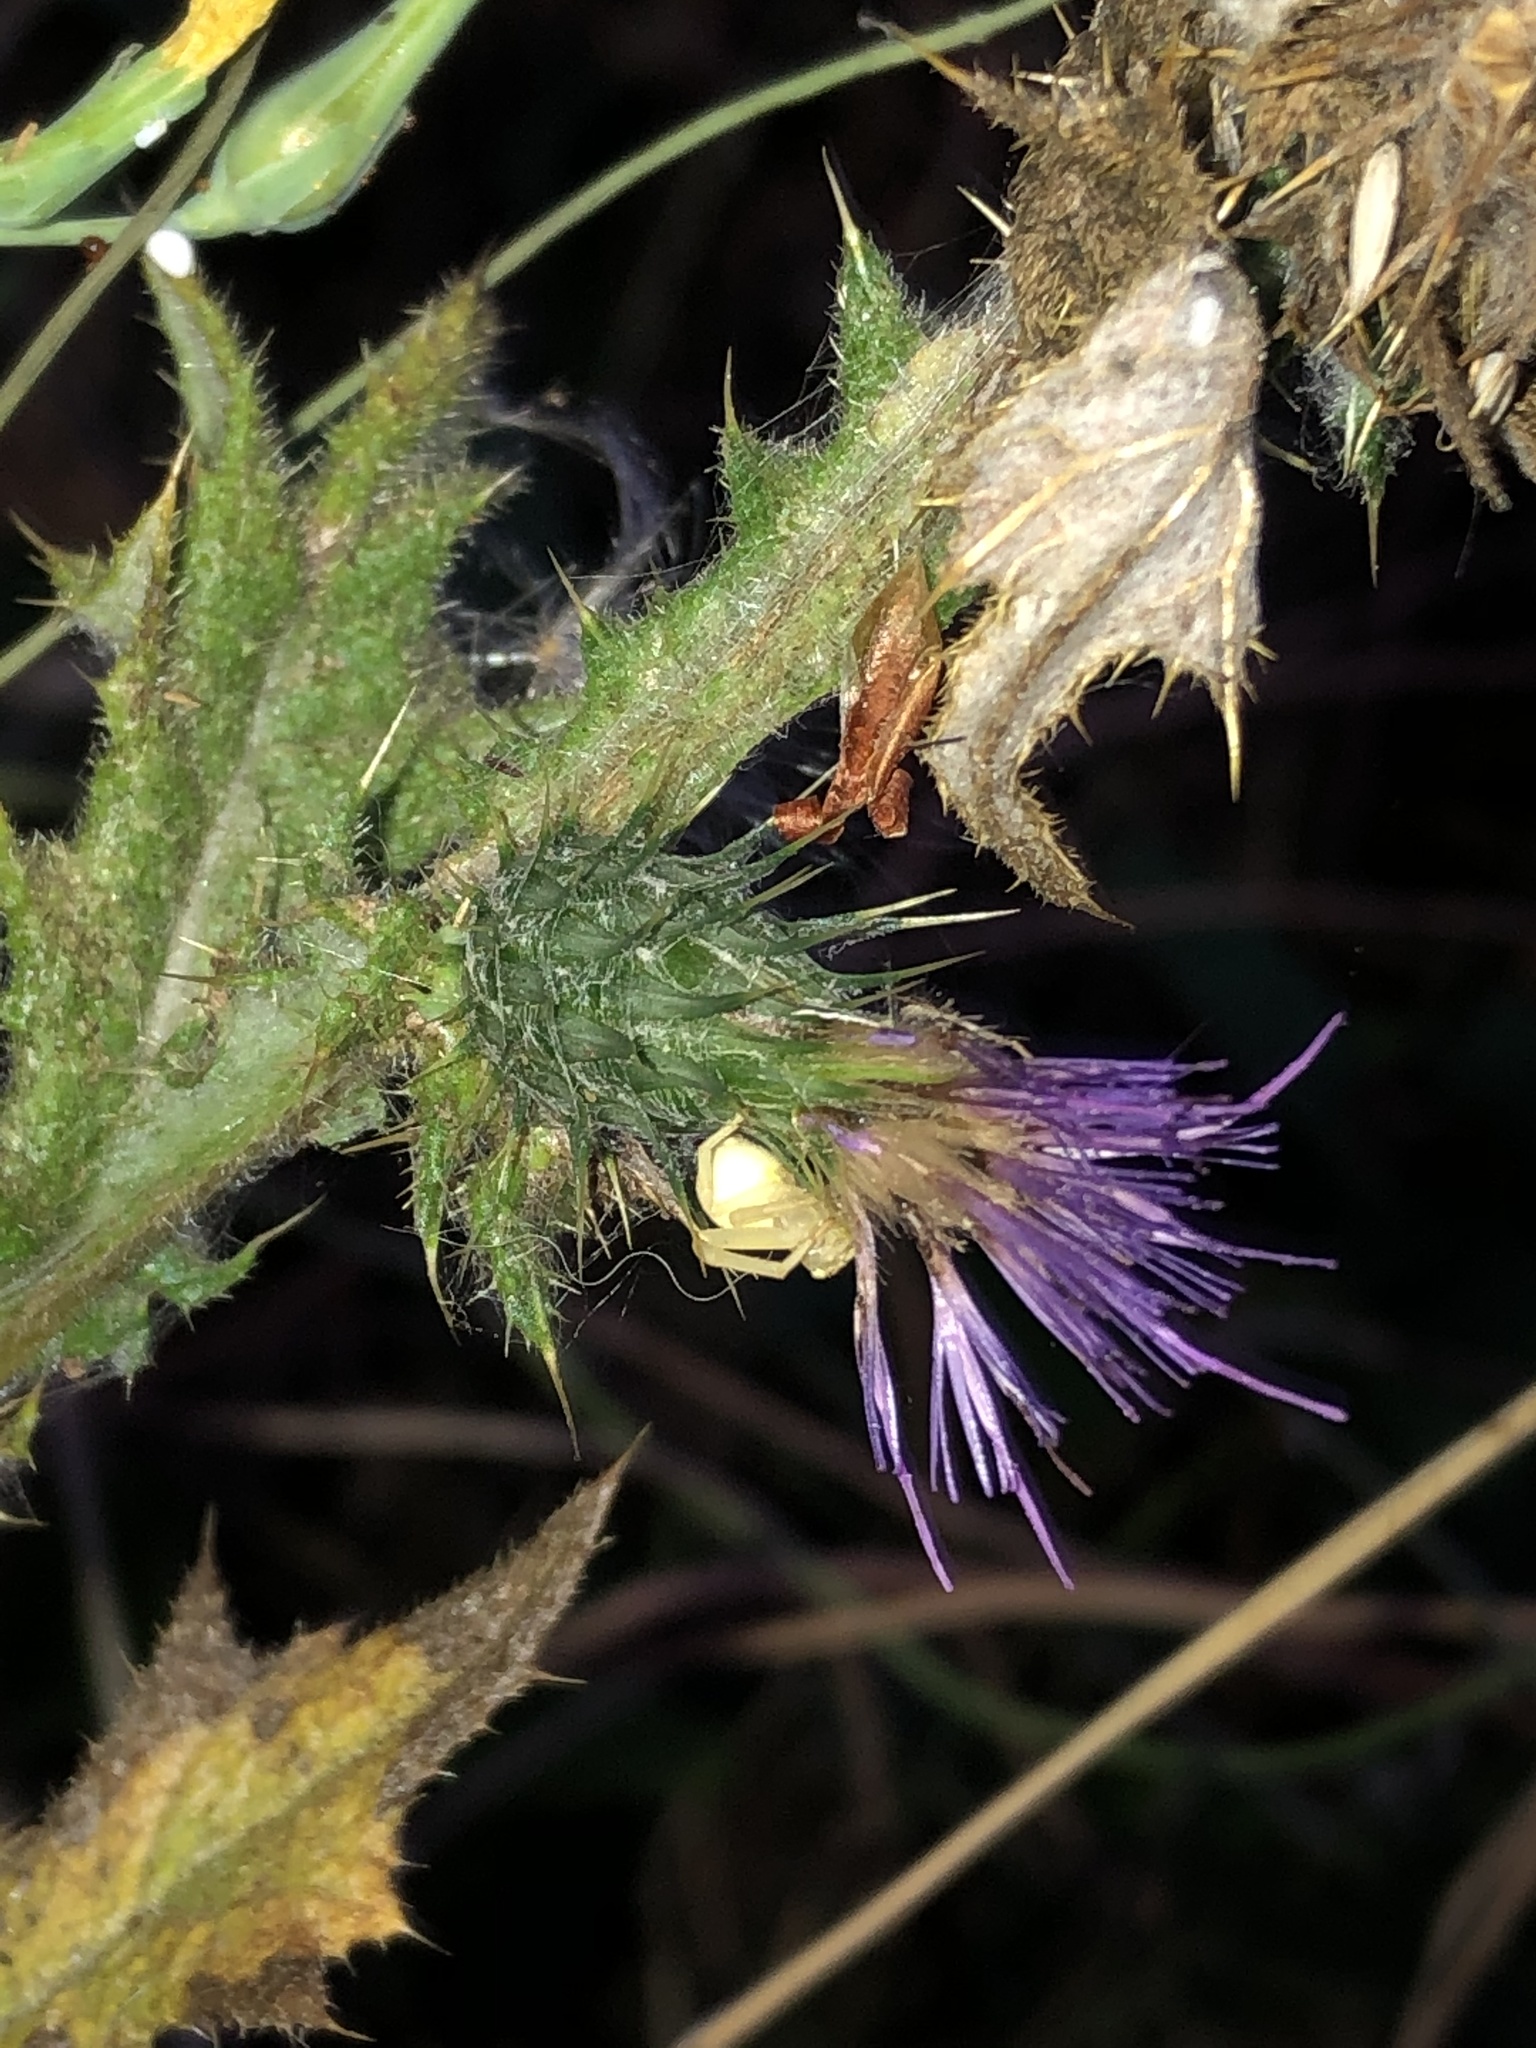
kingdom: Plantae
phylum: Tracheophyta
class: Magnoliopsida
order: Asterales
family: Asteraceae
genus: Cirsium
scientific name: Cirsium vulgare
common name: Bull thistle
